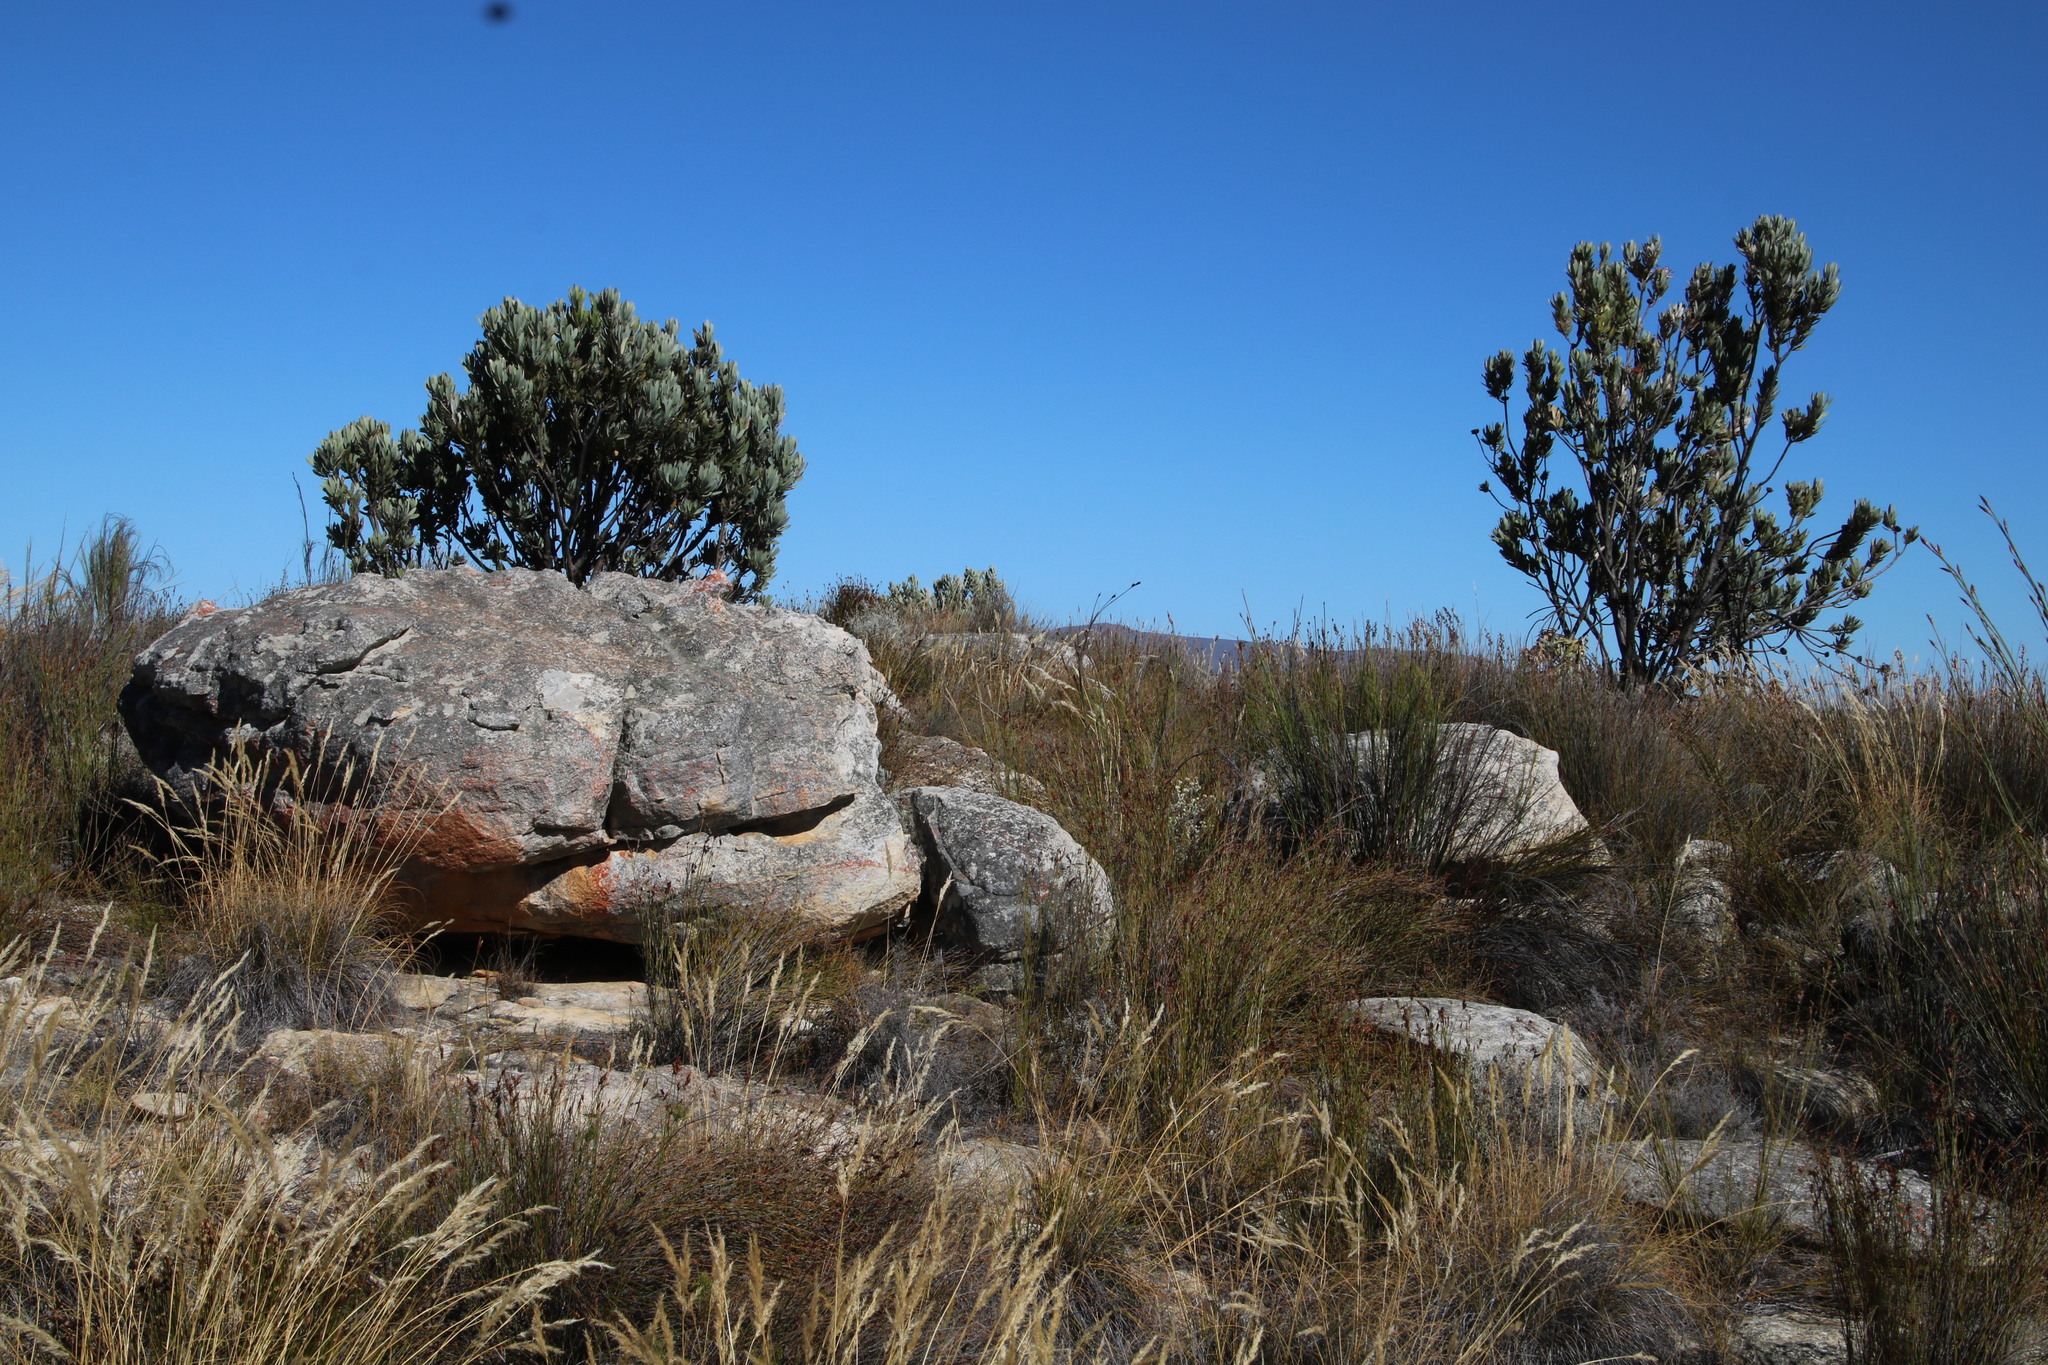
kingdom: Plantae
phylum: Tracheophyta
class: Magnoliopsida
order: Proteales
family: Proteaceae
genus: Protea
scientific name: Protea laurifolia
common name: Grey-leaf sugarbsh
